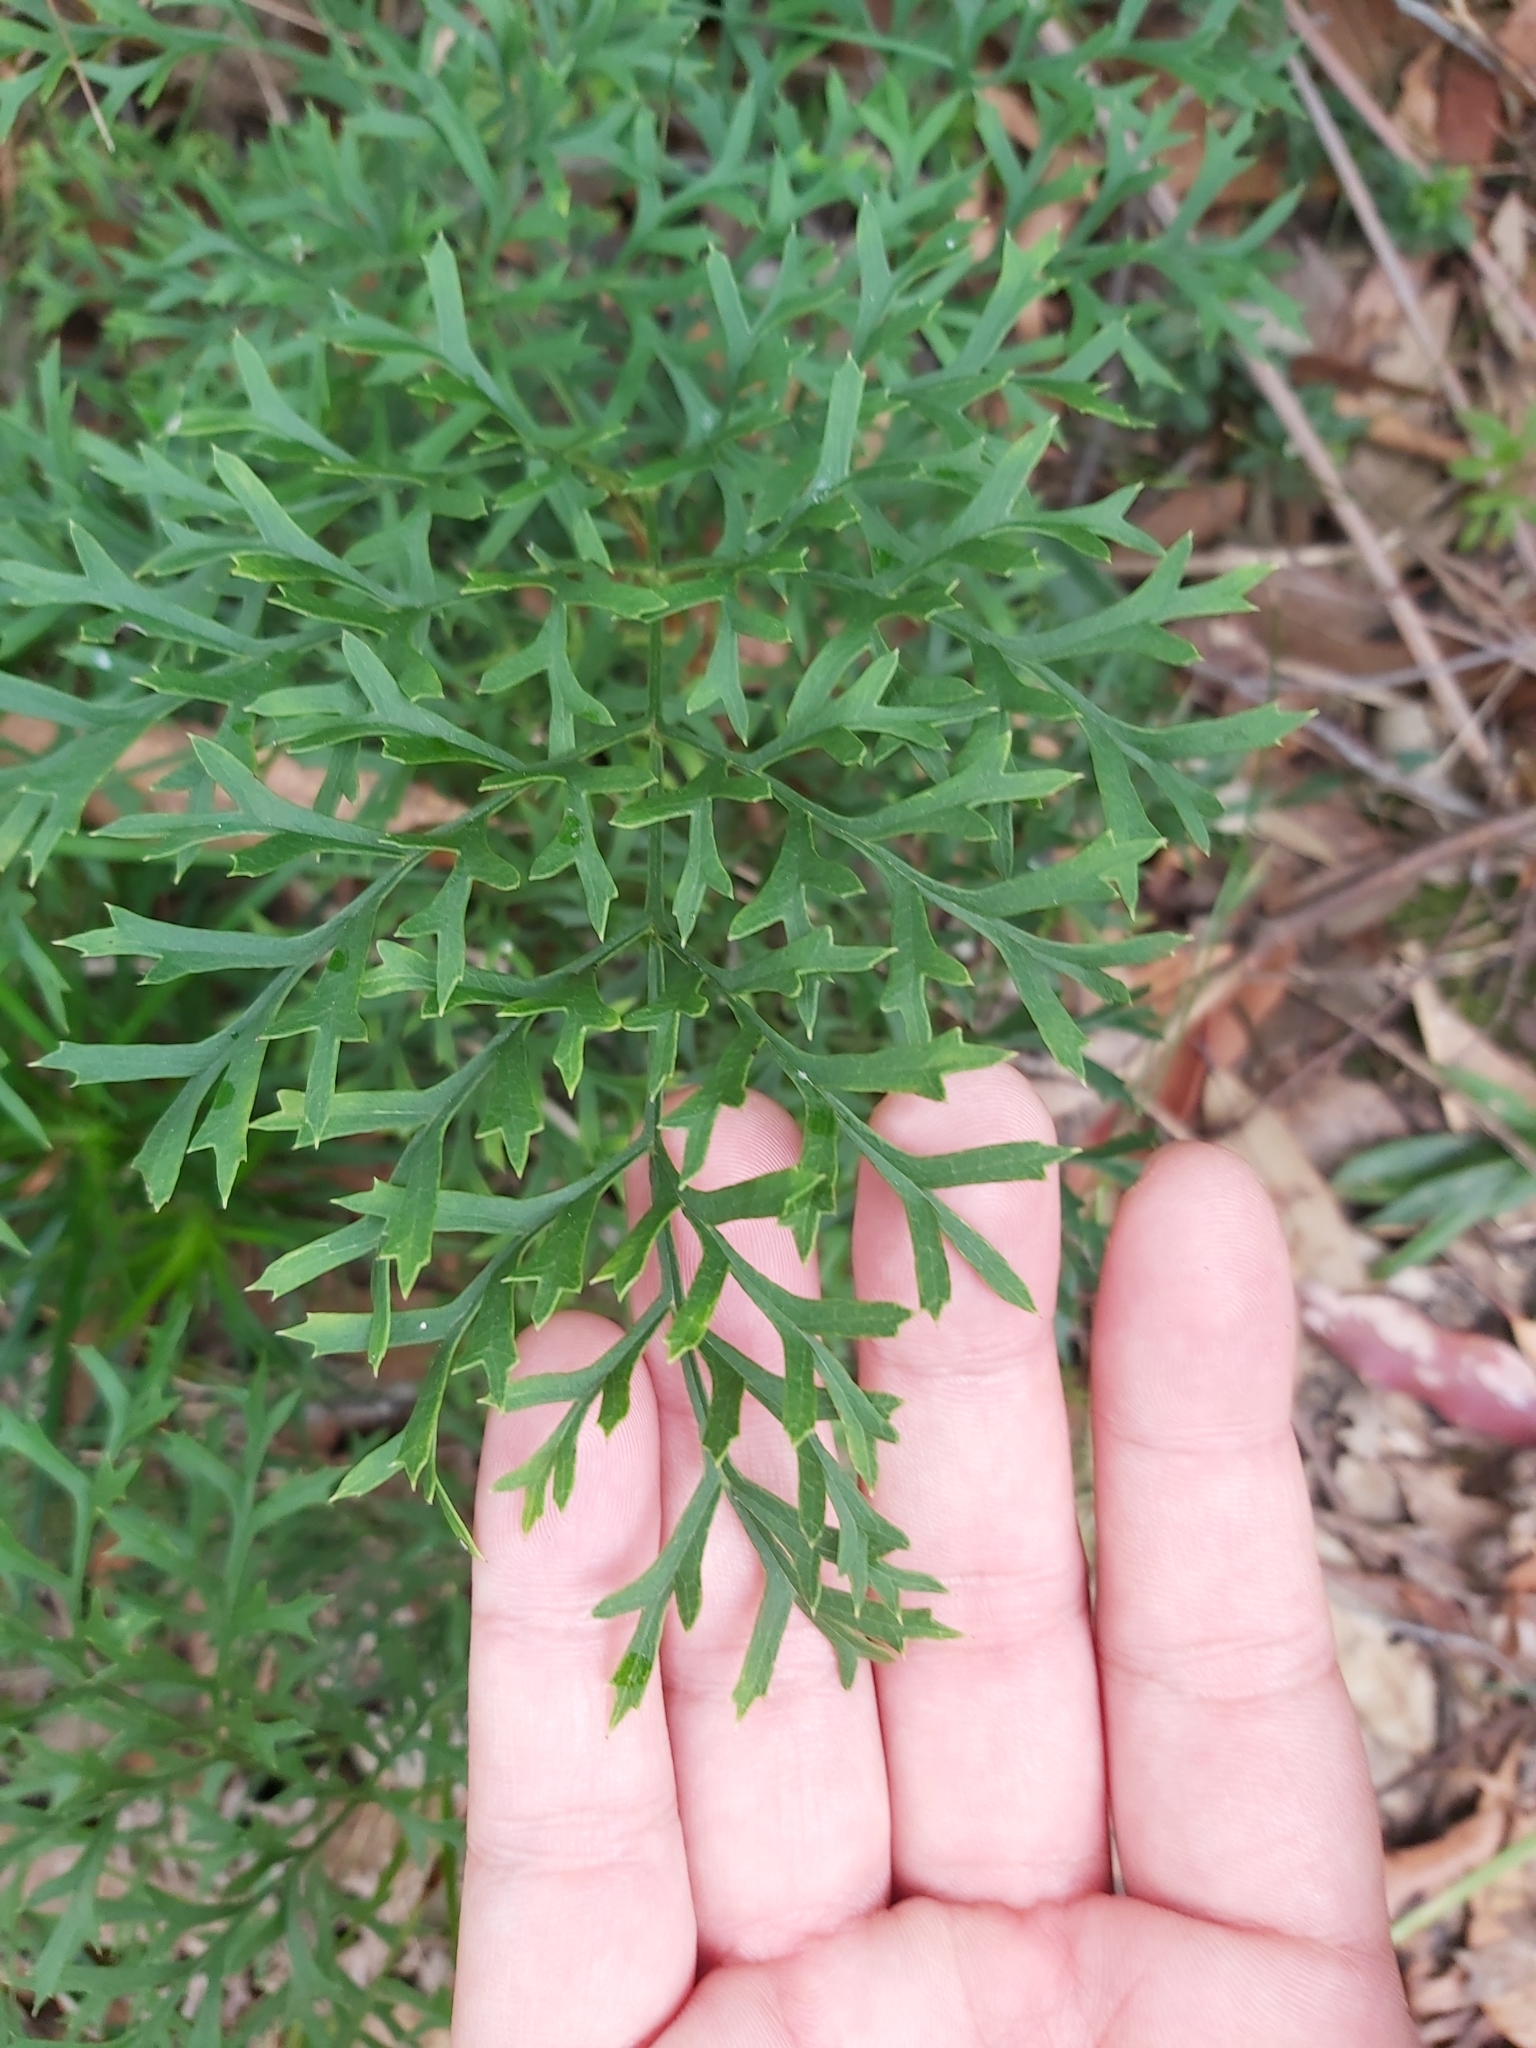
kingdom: Plantae
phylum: Tracheophyta
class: Magnoliopsida
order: Proteales
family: Proteaceae
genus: Lomatia
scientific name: Lomatia silaifolia
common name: Crinklebush
